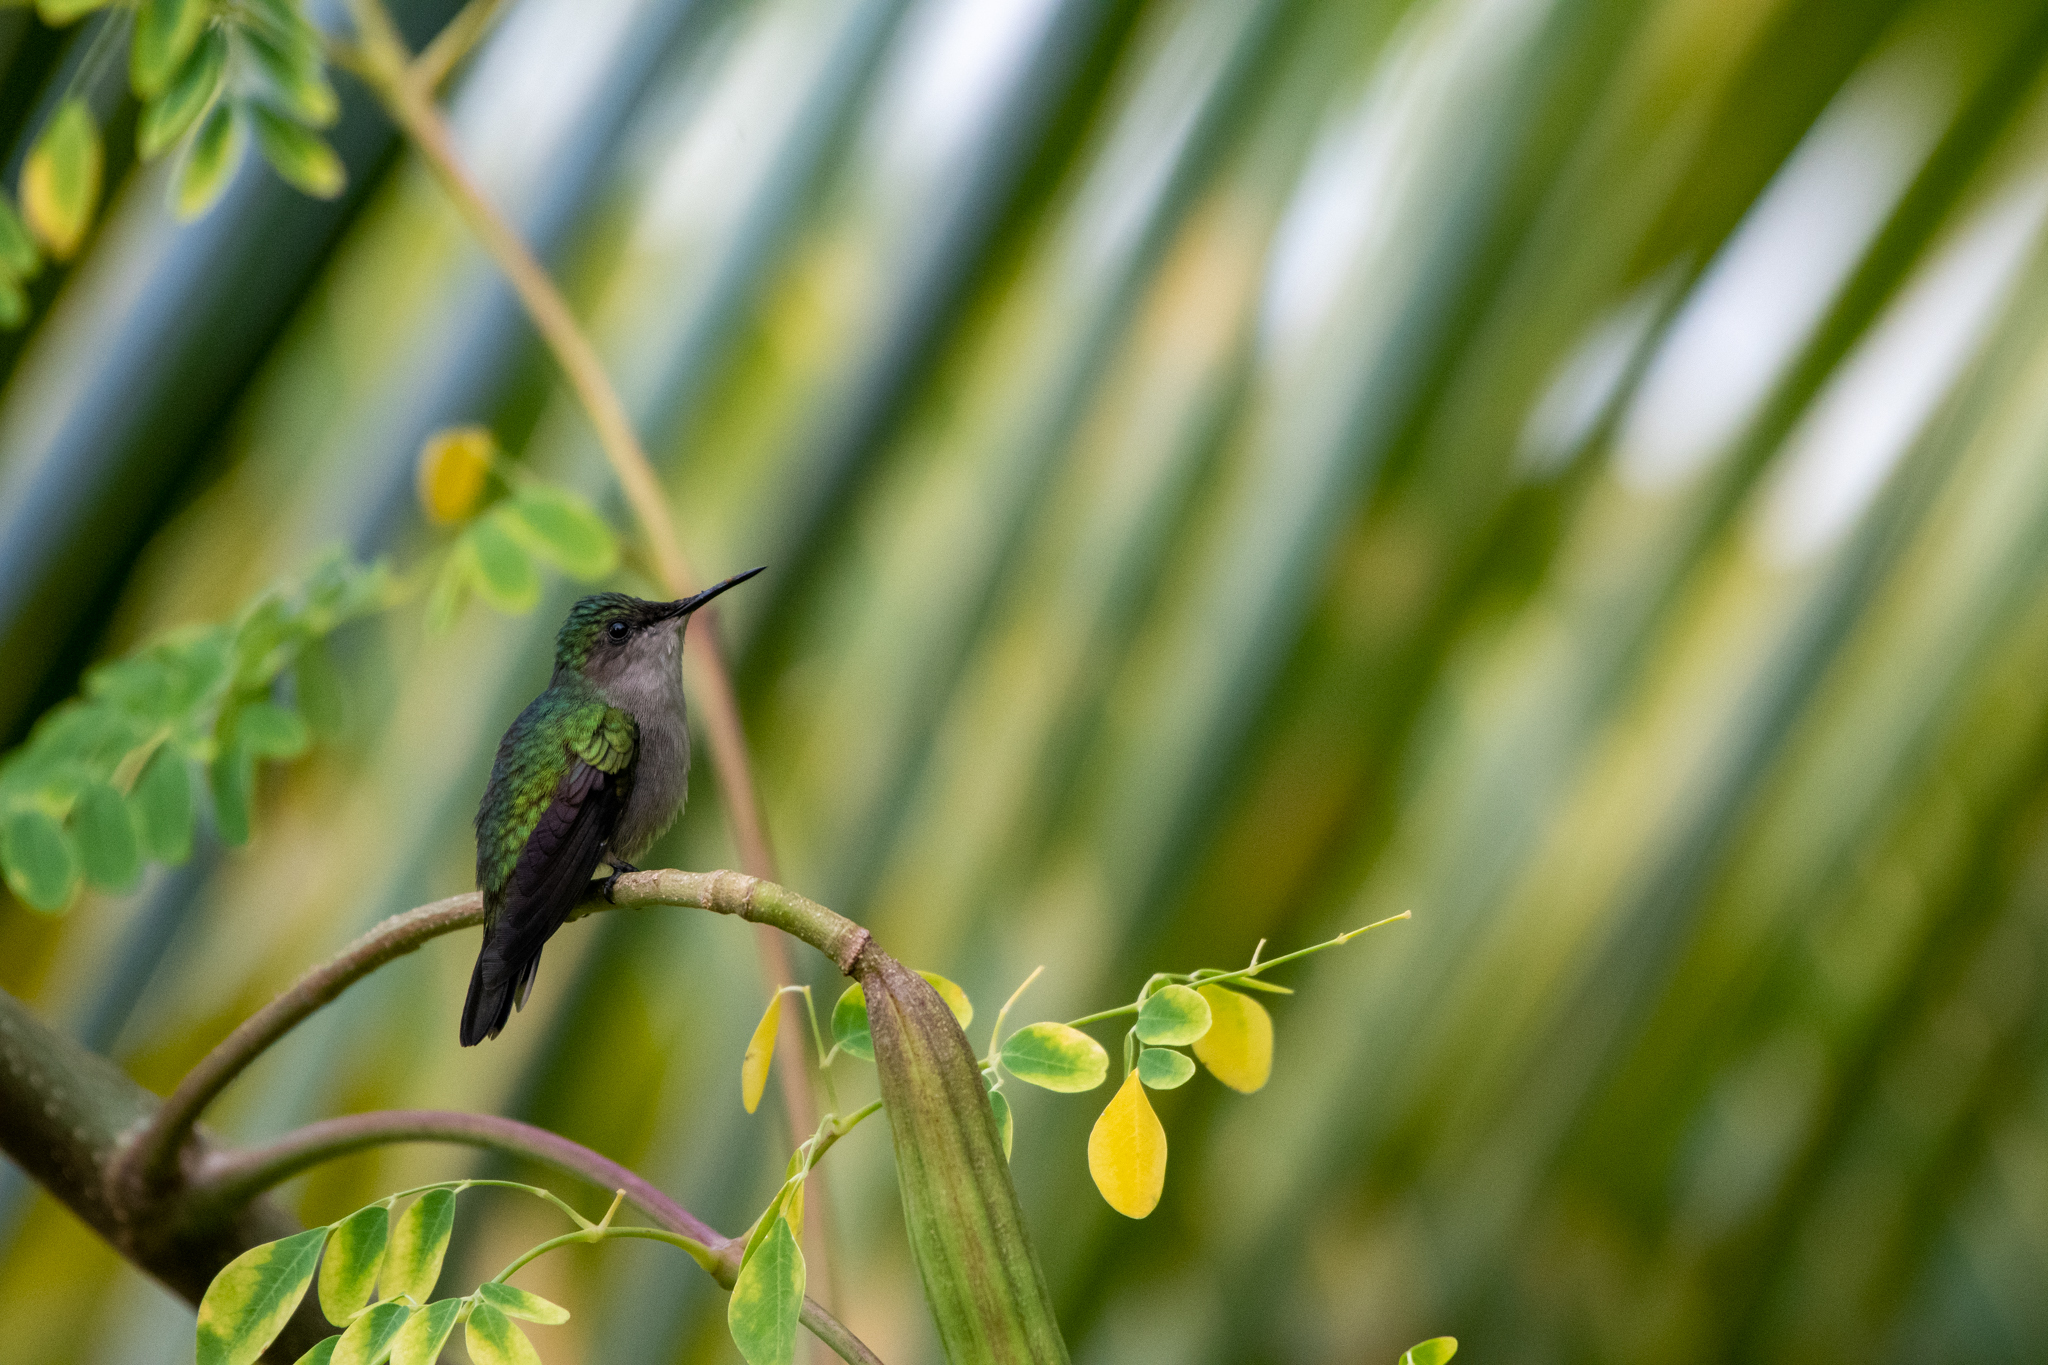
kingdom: Animalia
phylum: Chordata
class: Aves
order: Apodiformes
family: Trochilidae
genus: Orthorhyncus
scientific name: Orthorhyncus cristatus
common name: Antillean crested hummingbird
